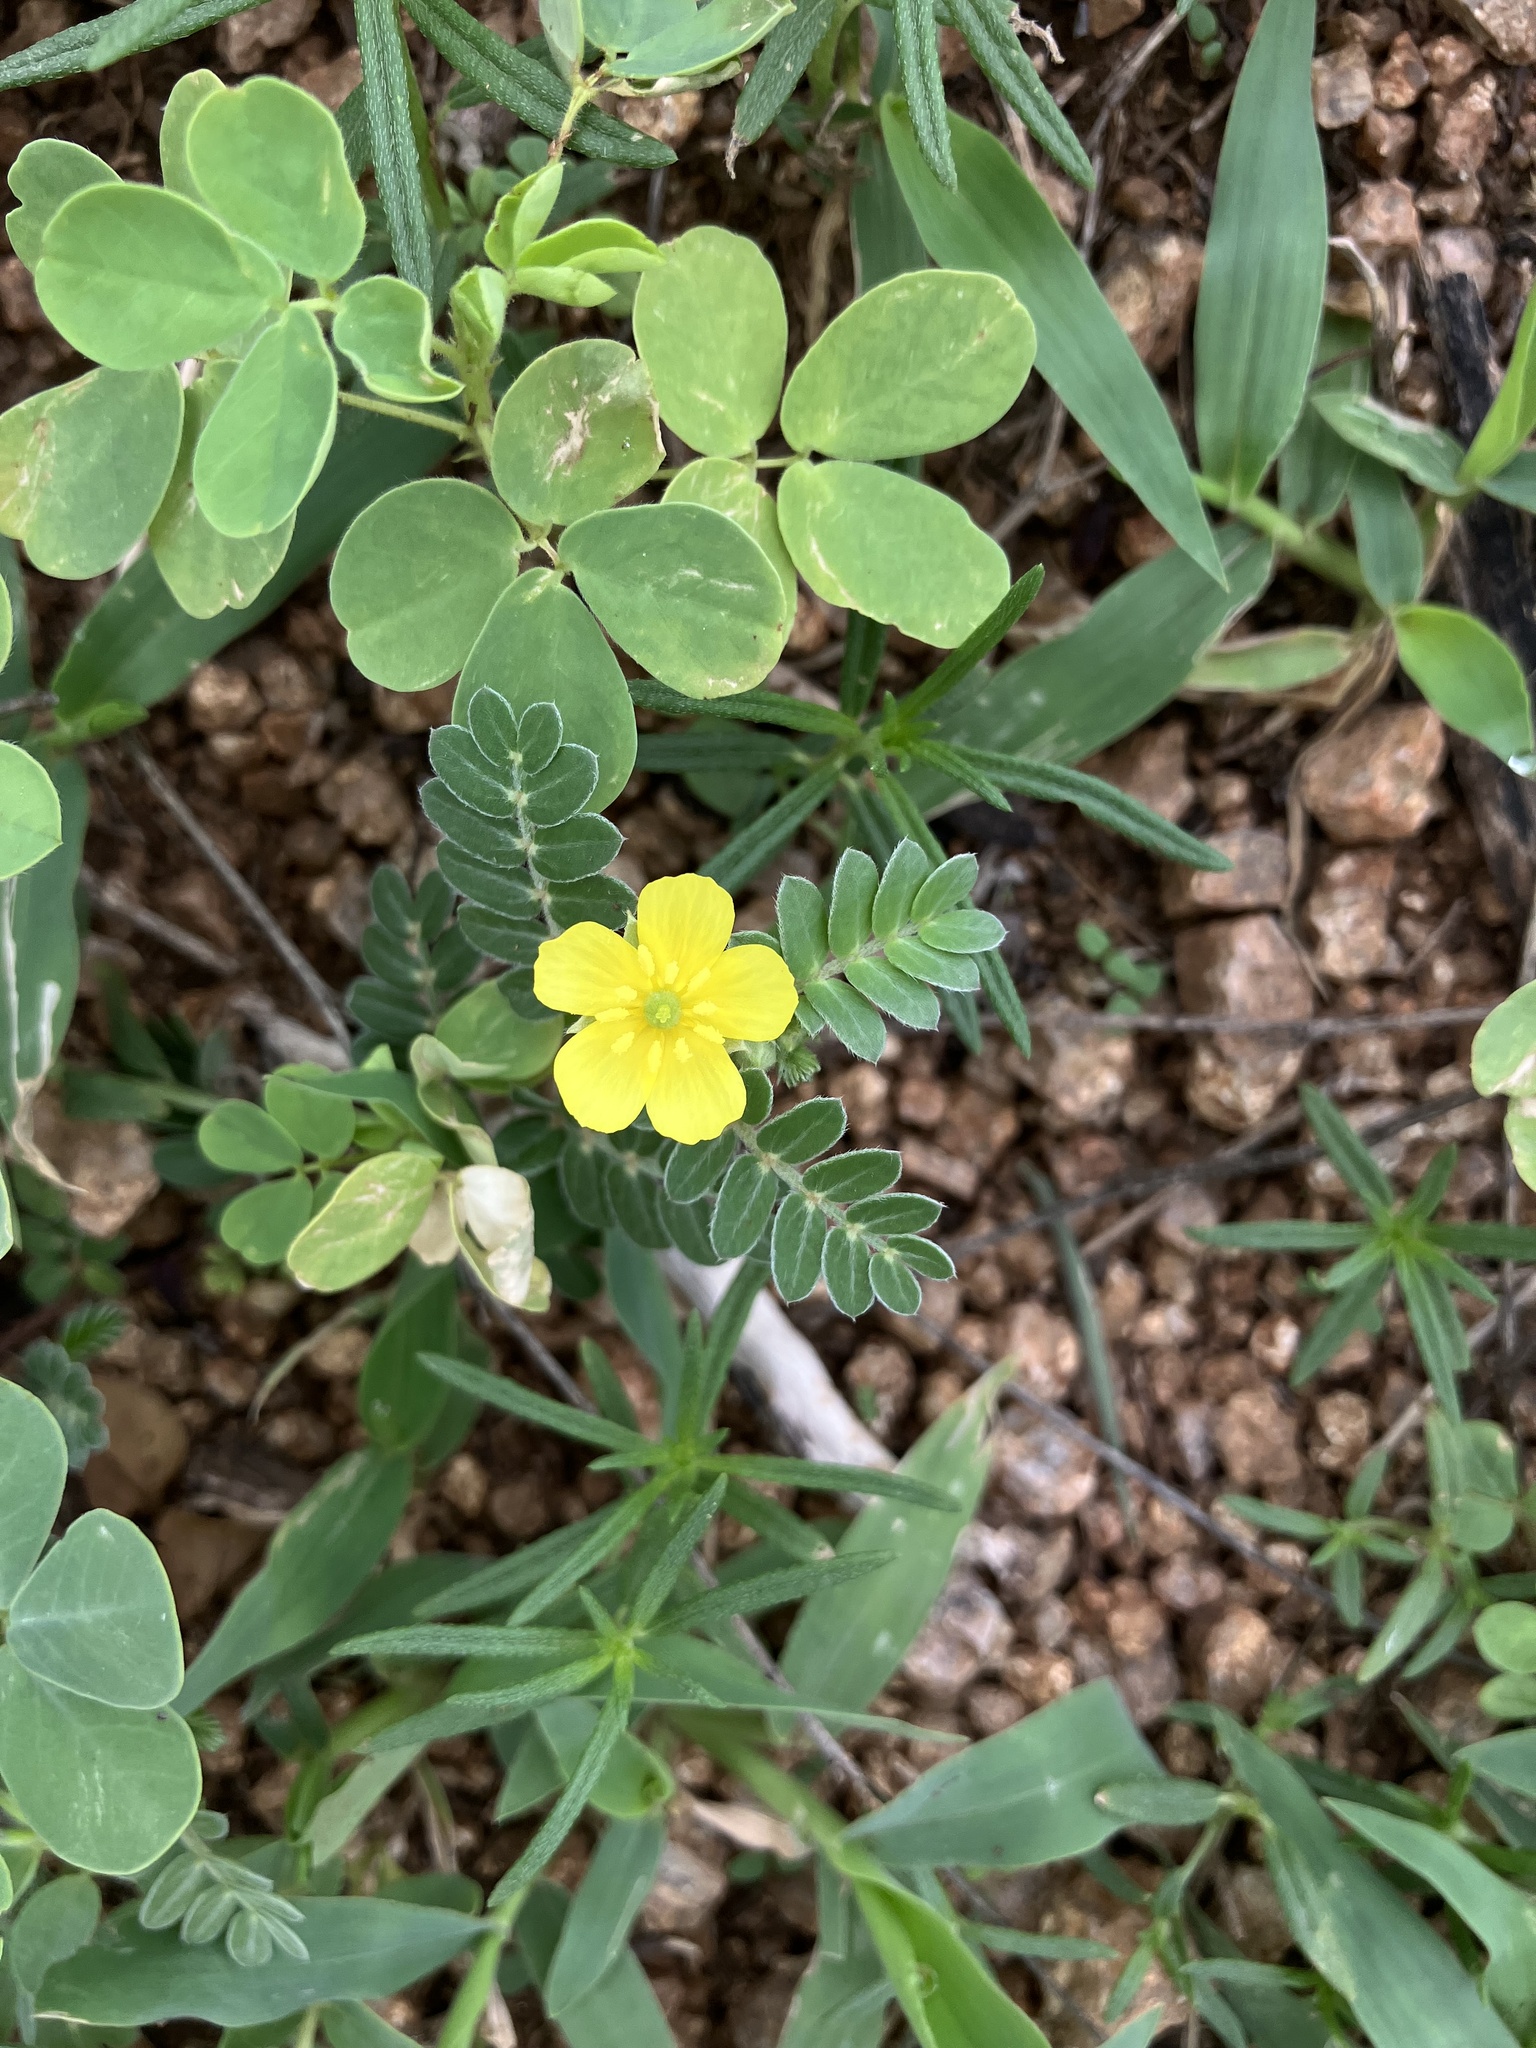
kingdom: Plantae
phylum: Tracheophyta
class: Magnoliopsida
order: Zygophyllales
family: Zygophyllaceae
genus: Tribulus
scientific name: Tribulus terrestris
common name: Puncturevine
